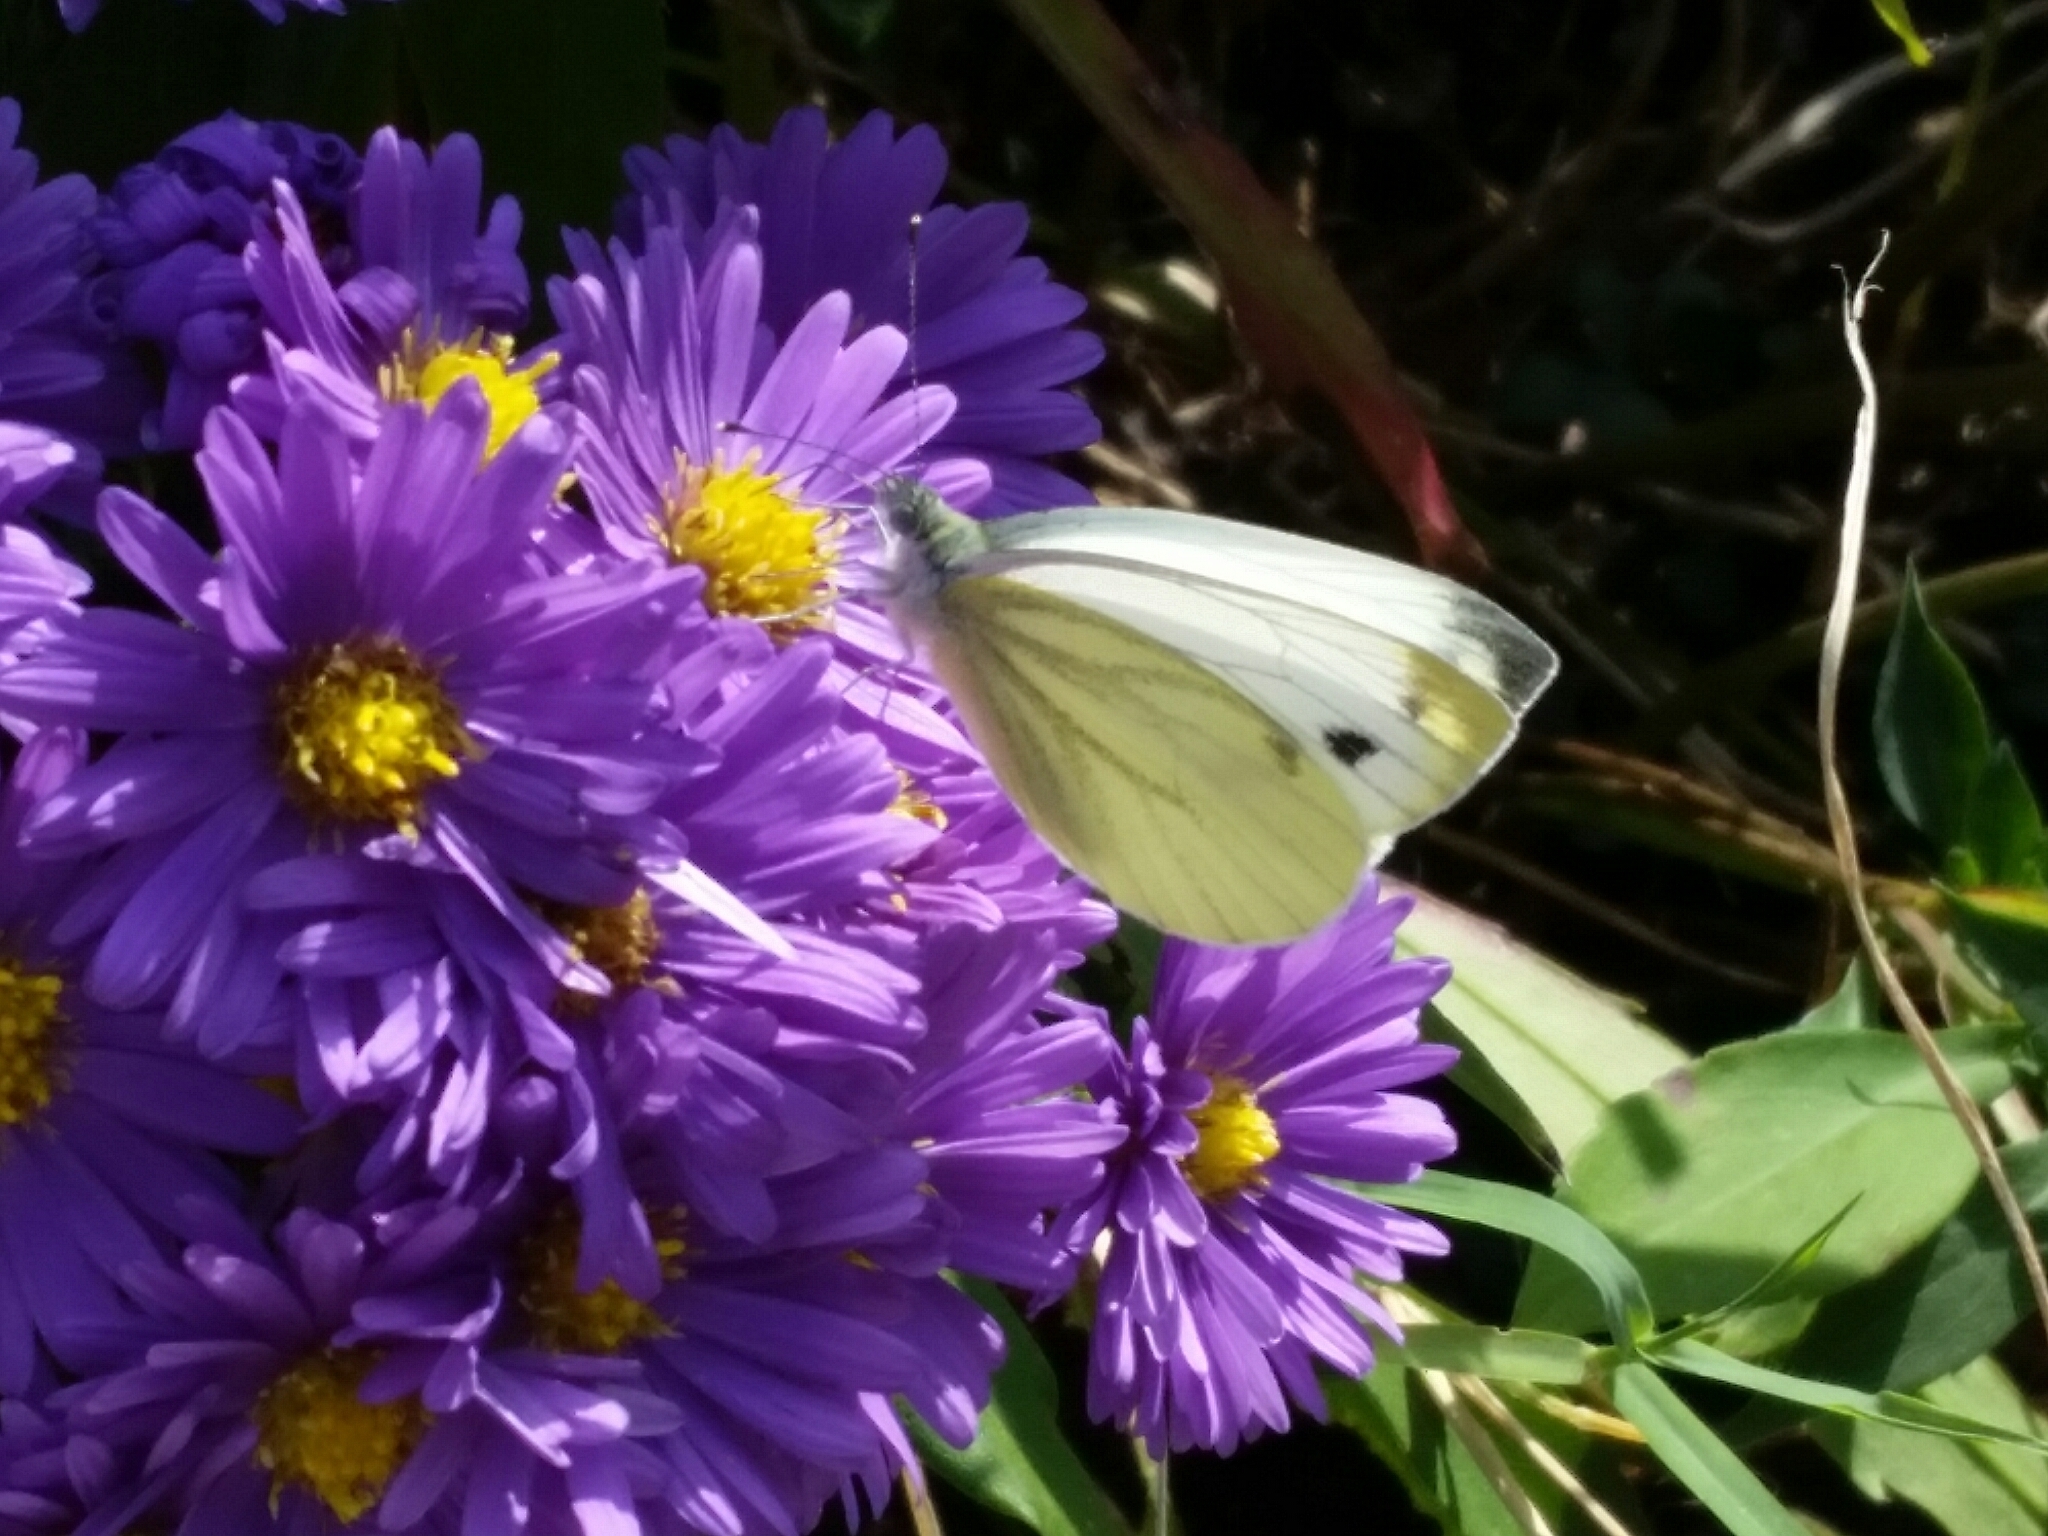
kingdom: Animalia
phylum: Arthropoda
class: Insecta
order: Lepidoptera
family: Pieridae
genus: Pieris
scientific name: Pieris napi
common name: Green-veined white
